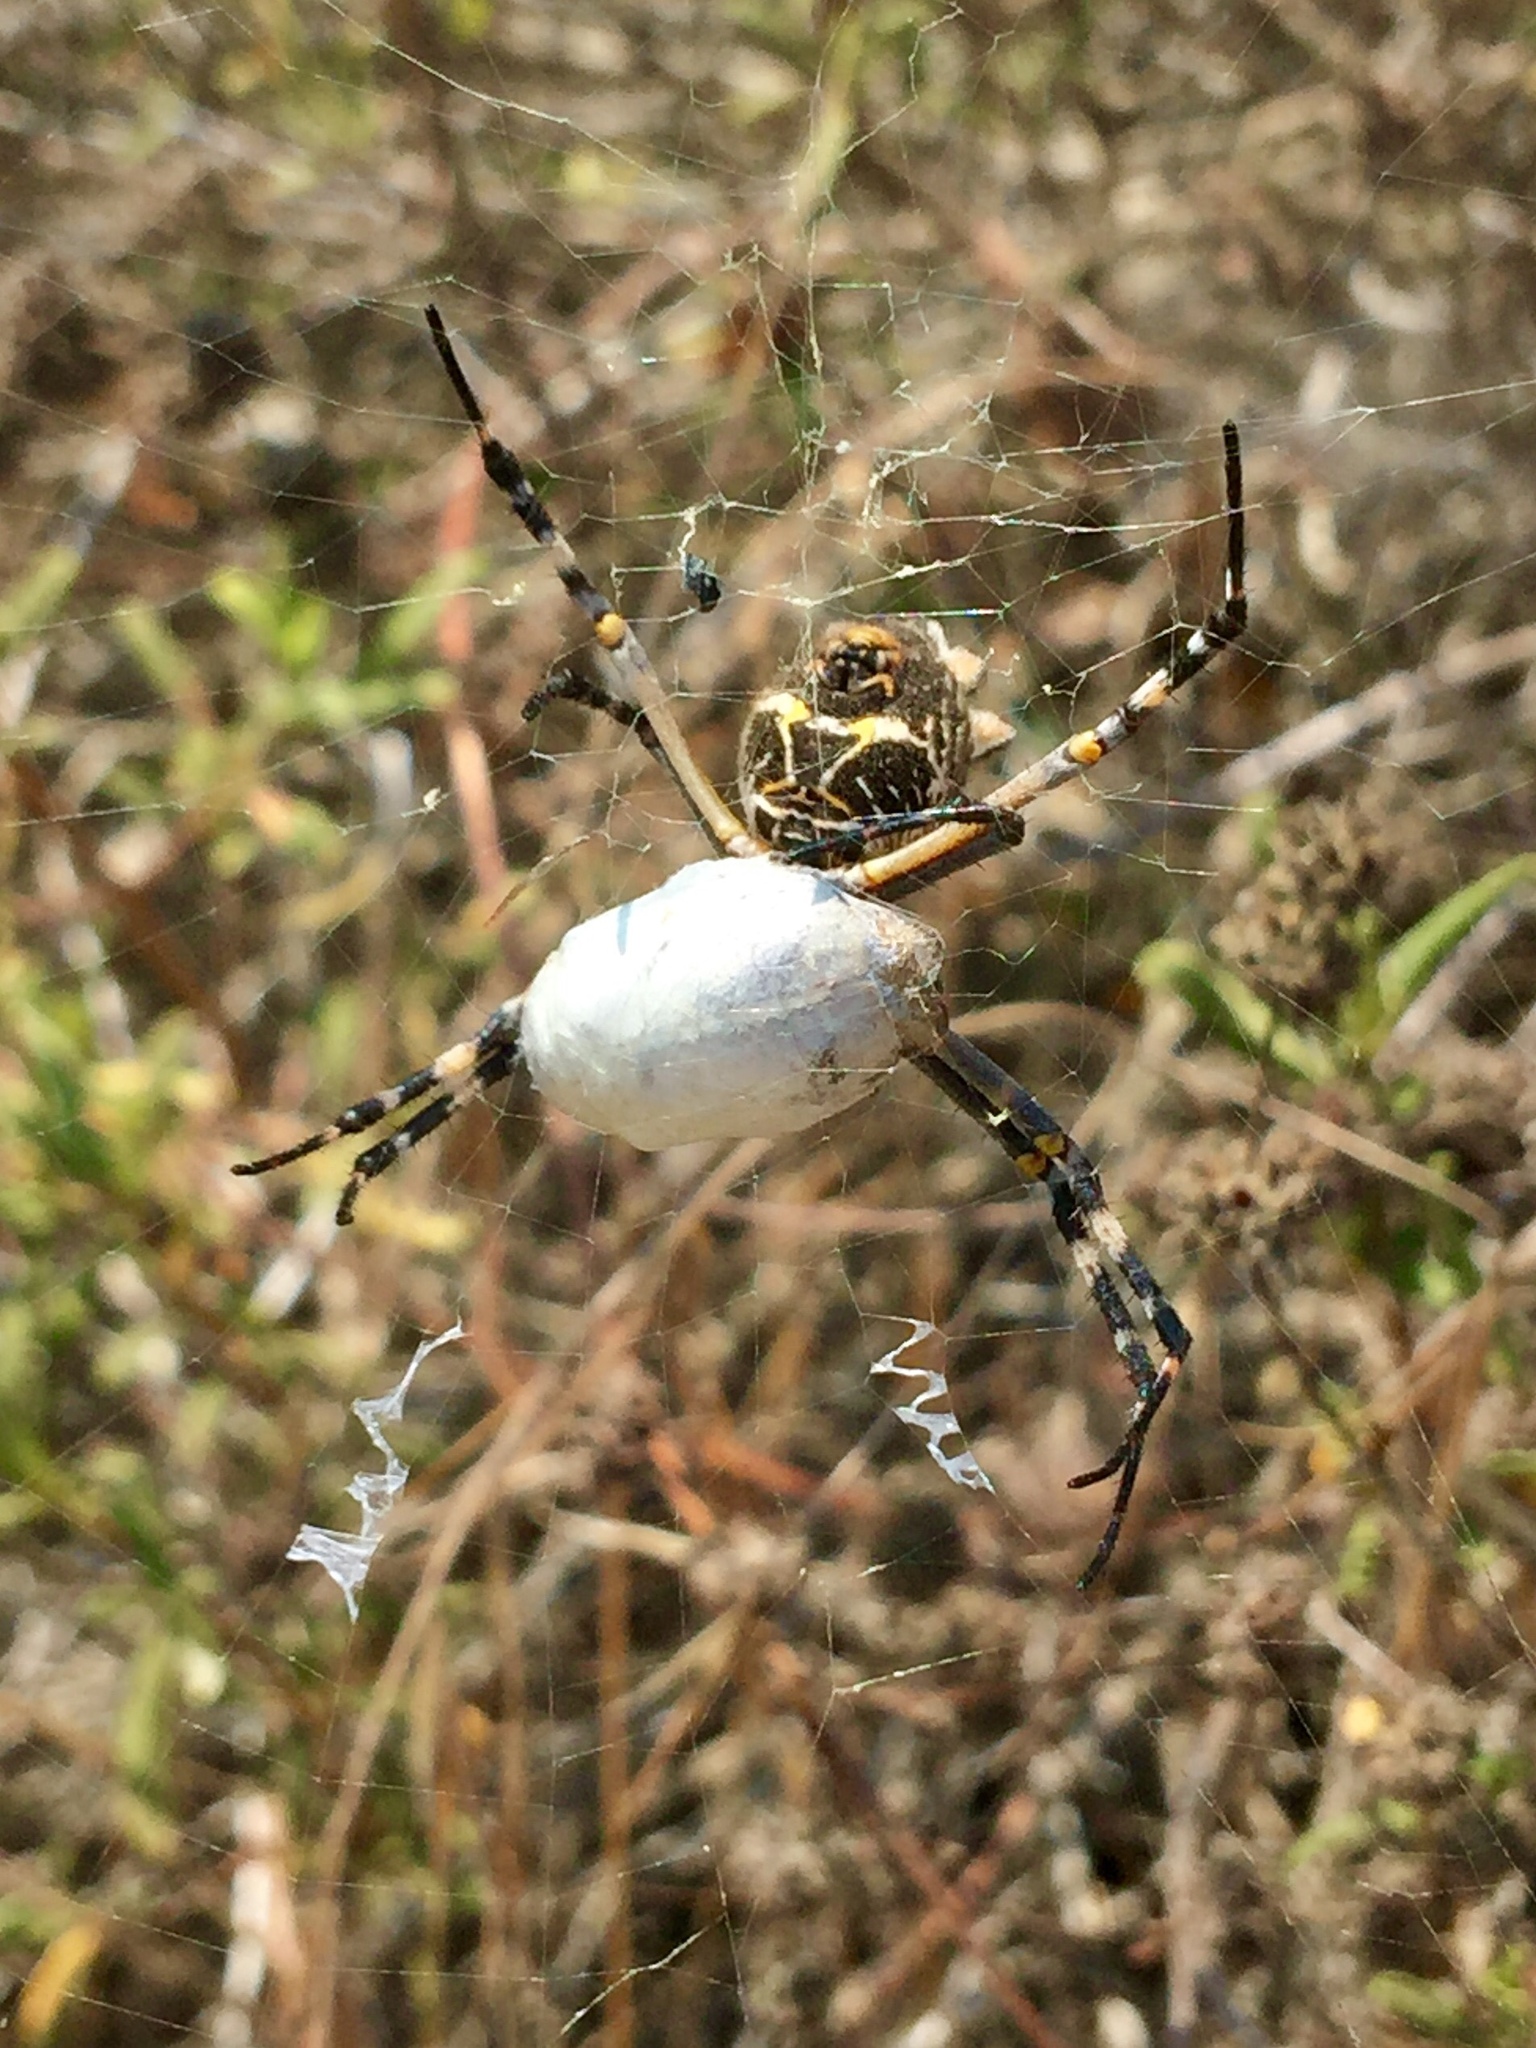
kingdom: Animalia
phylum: Arthropoda
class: Arachnida
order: Araneae
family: Araneidae
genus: Argiope
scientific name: Argiope argentata
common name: Orb weavers
